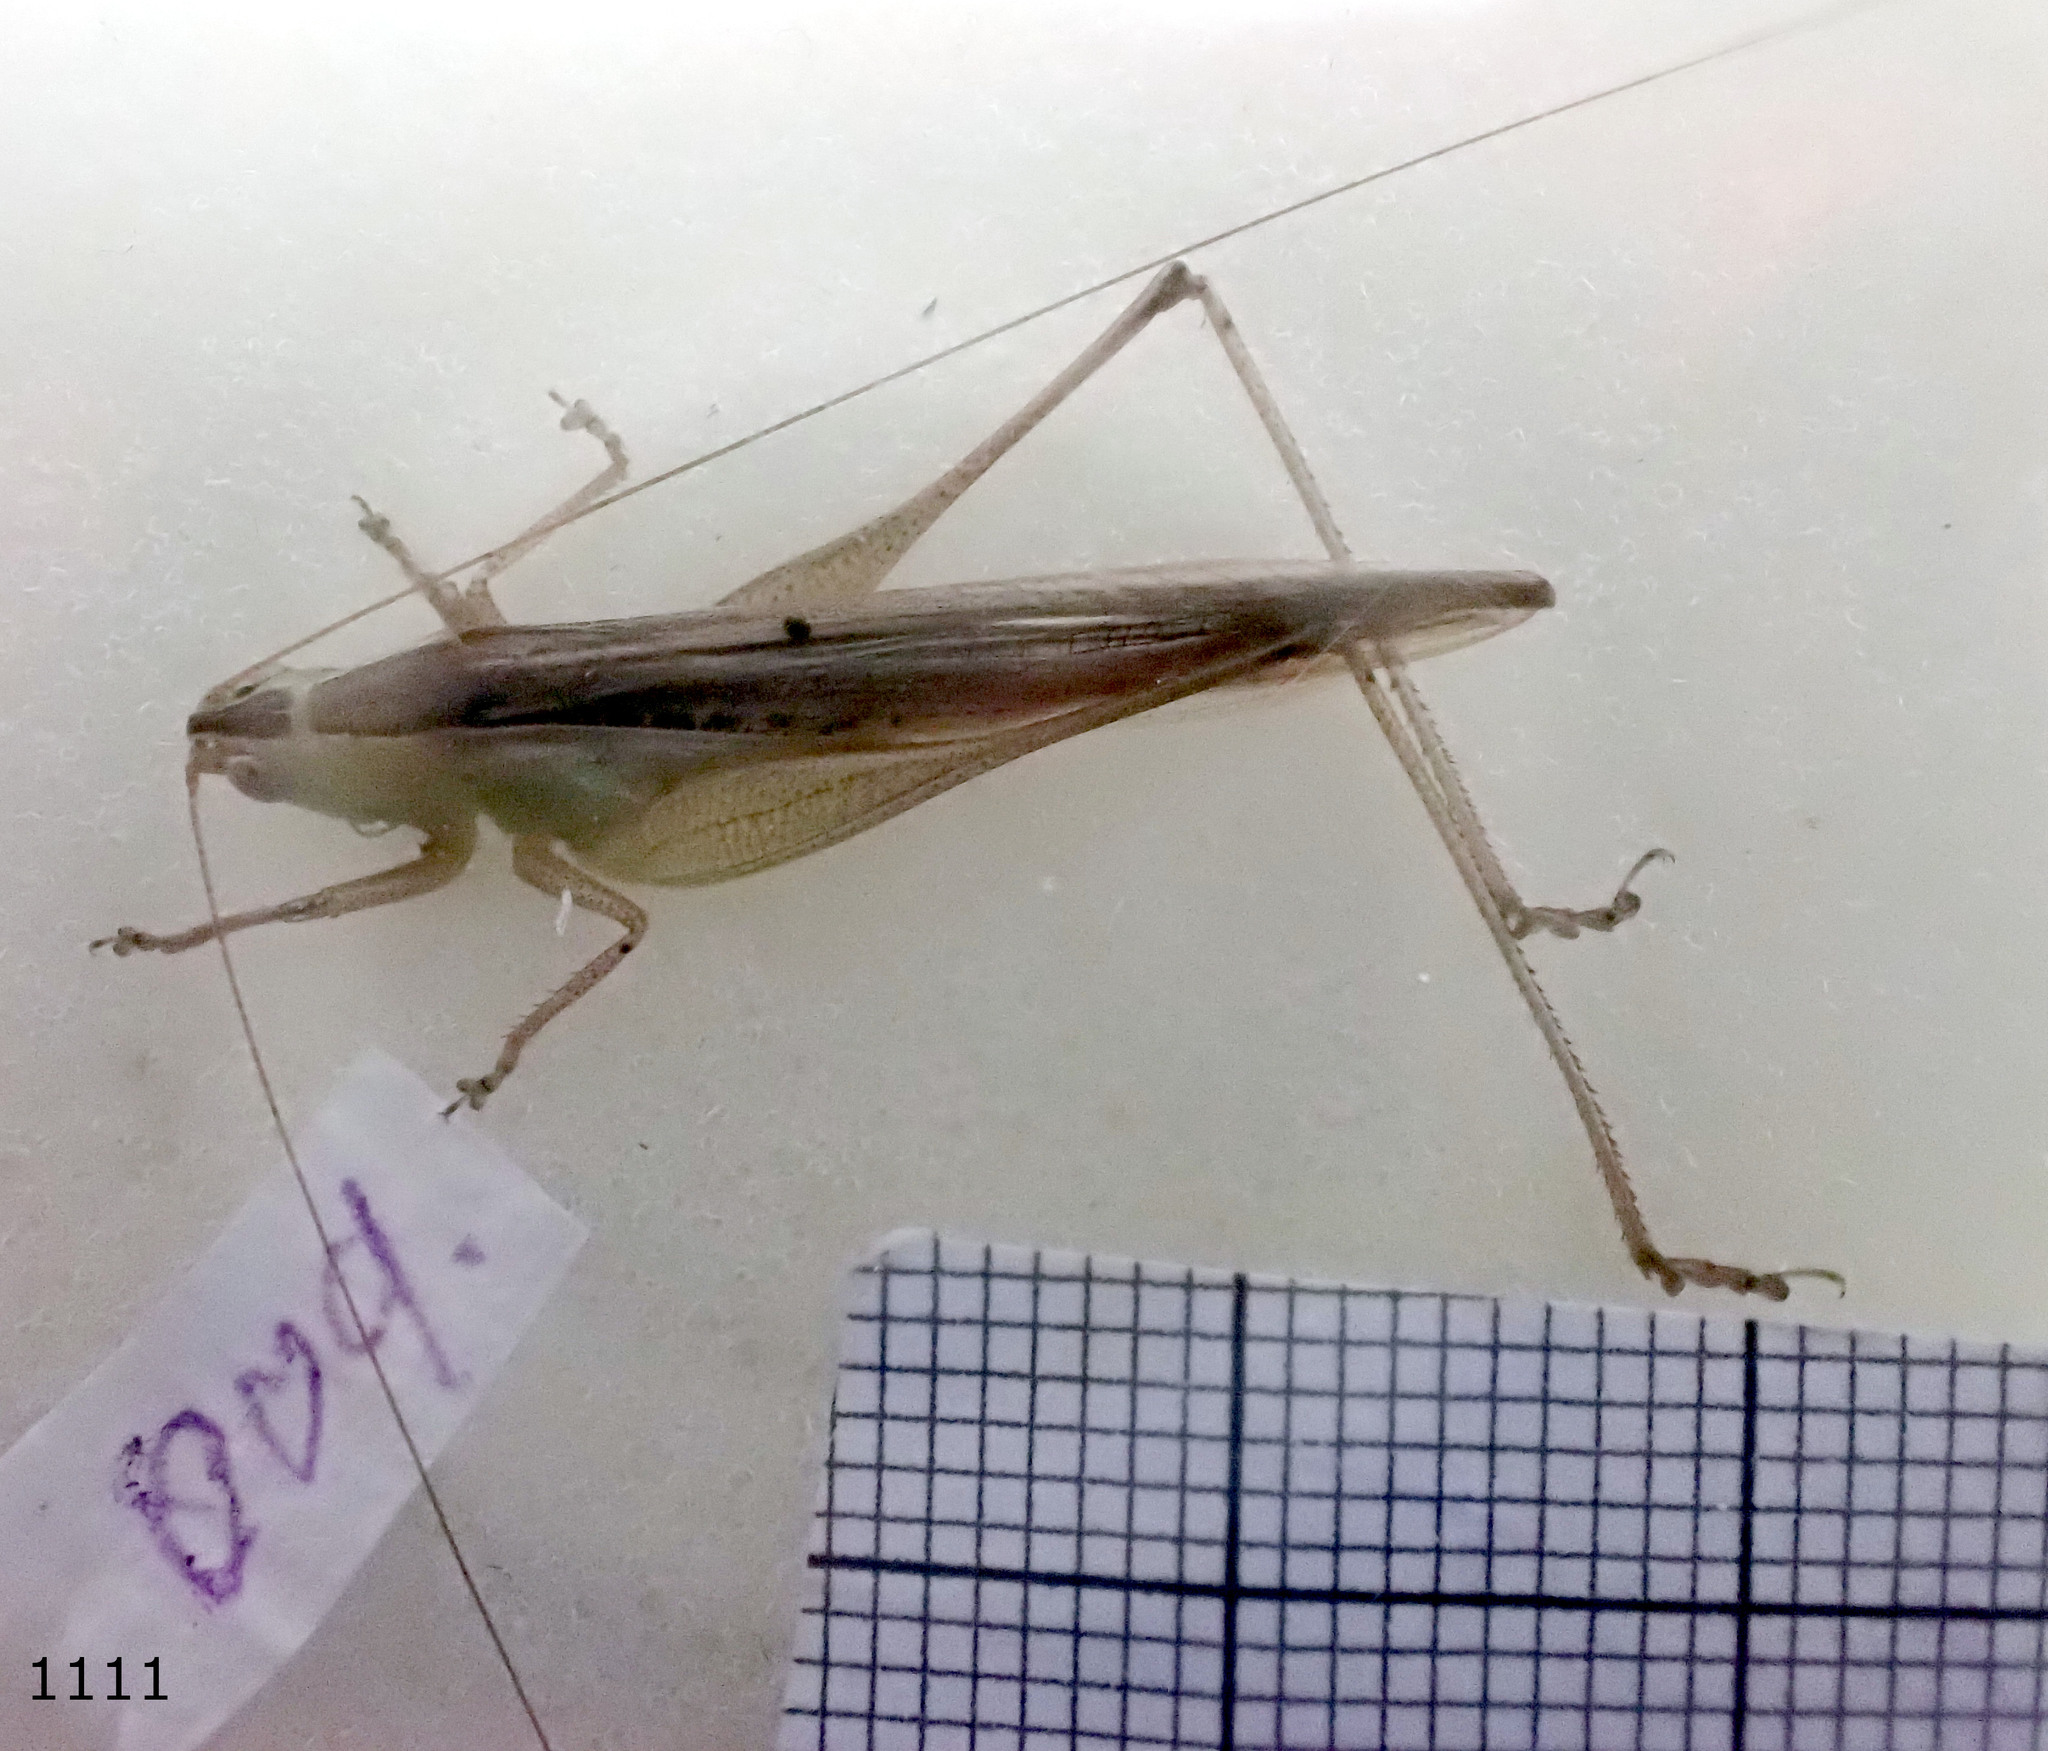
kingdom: Animalia
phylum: Arthropoda
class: Insecta
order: Orthoptera
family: Tettigoniidae
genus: Conocephalus
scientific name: Conocephalus maculatus
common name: Spotted meadow katydid
